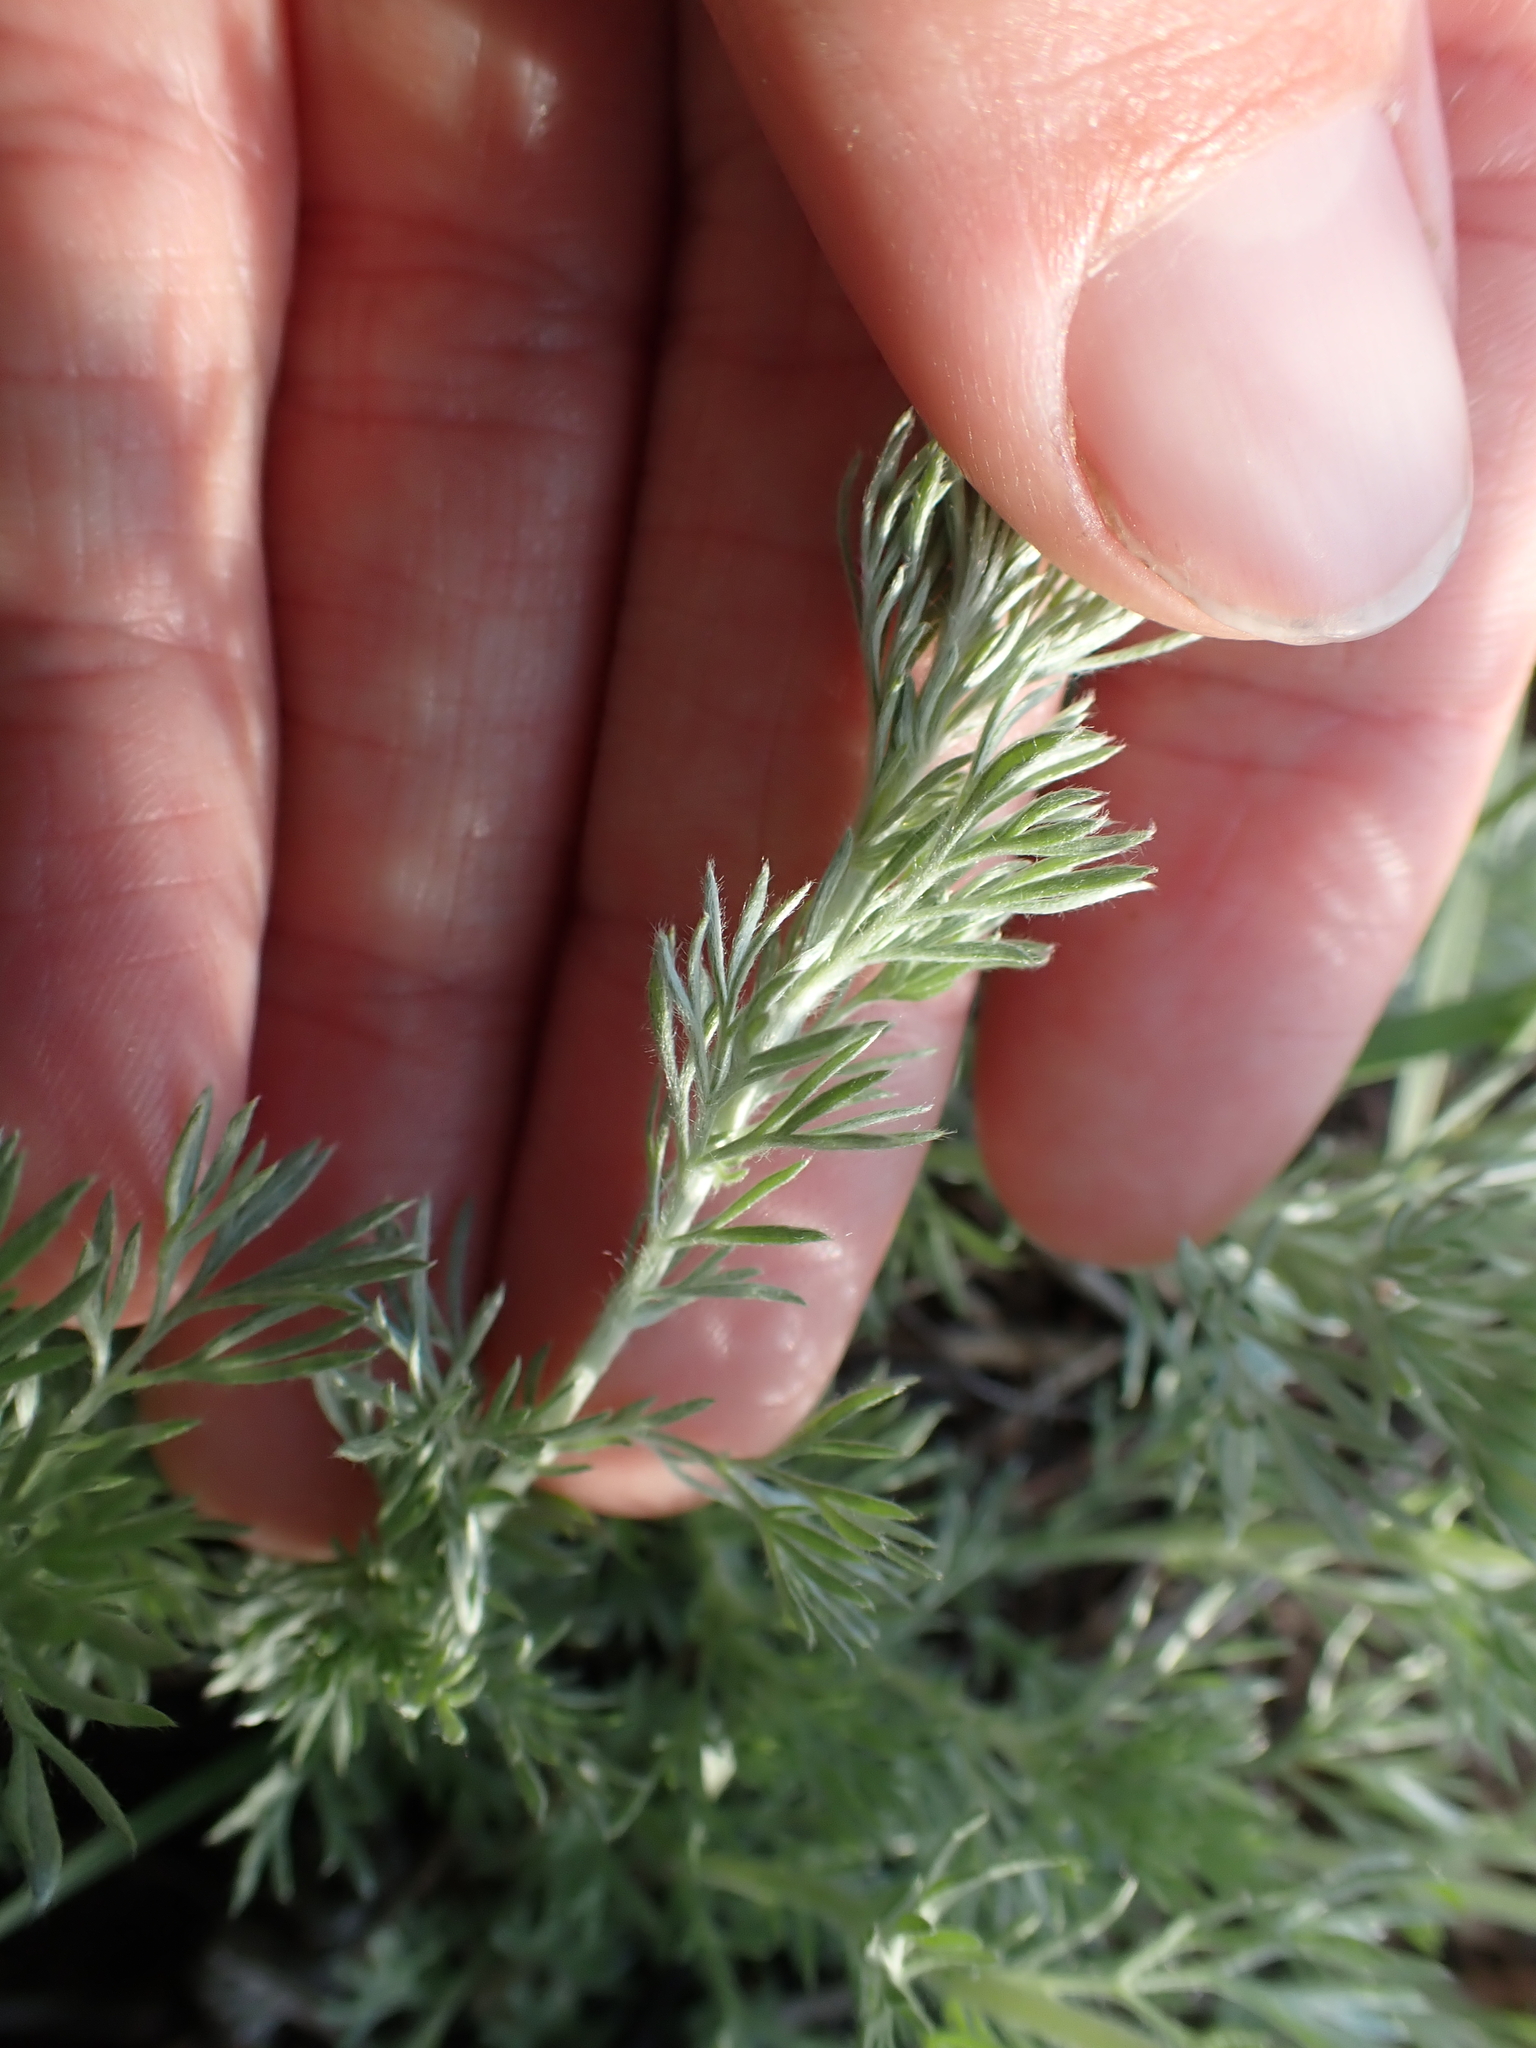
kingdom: Plantae
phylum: Tracheophyta
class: Magnoliopsida
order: Asterales
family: Asteraceae
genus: Artemisia
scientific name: Artemisia frigida
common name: Prairie sagewort
